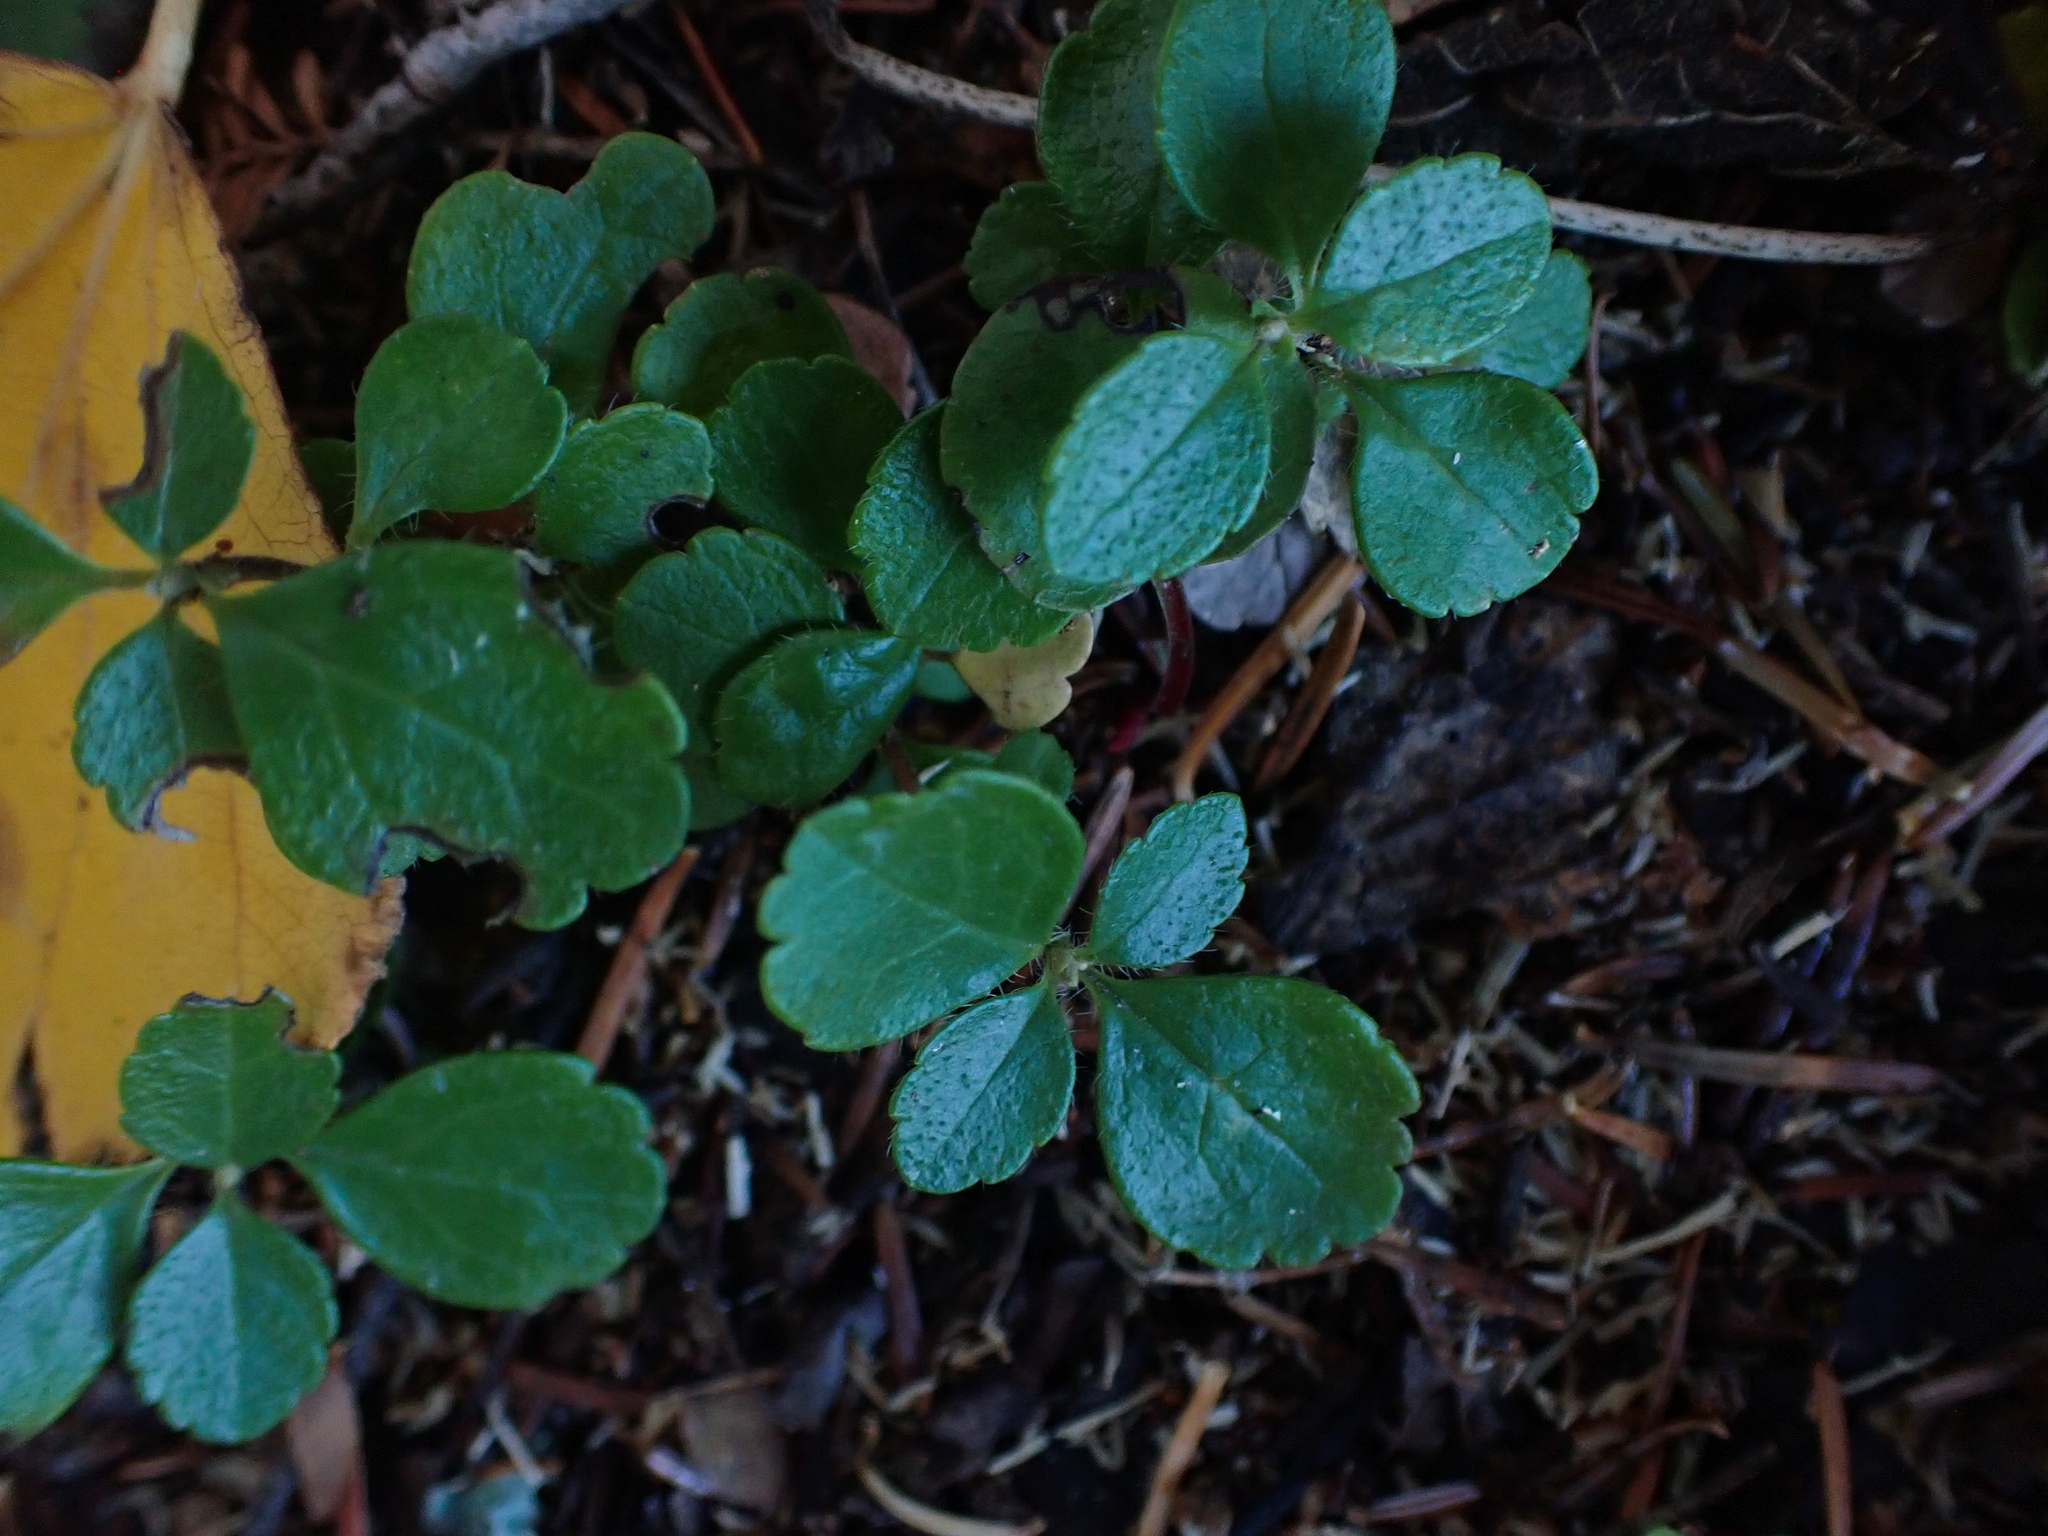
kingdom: Plantae
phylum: Tracheophyta
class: Magnoliopsida
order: Dipsacales
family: Caprifoliaceae
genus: Linnaea
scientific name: Linnaea borealis
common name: Twinflower
